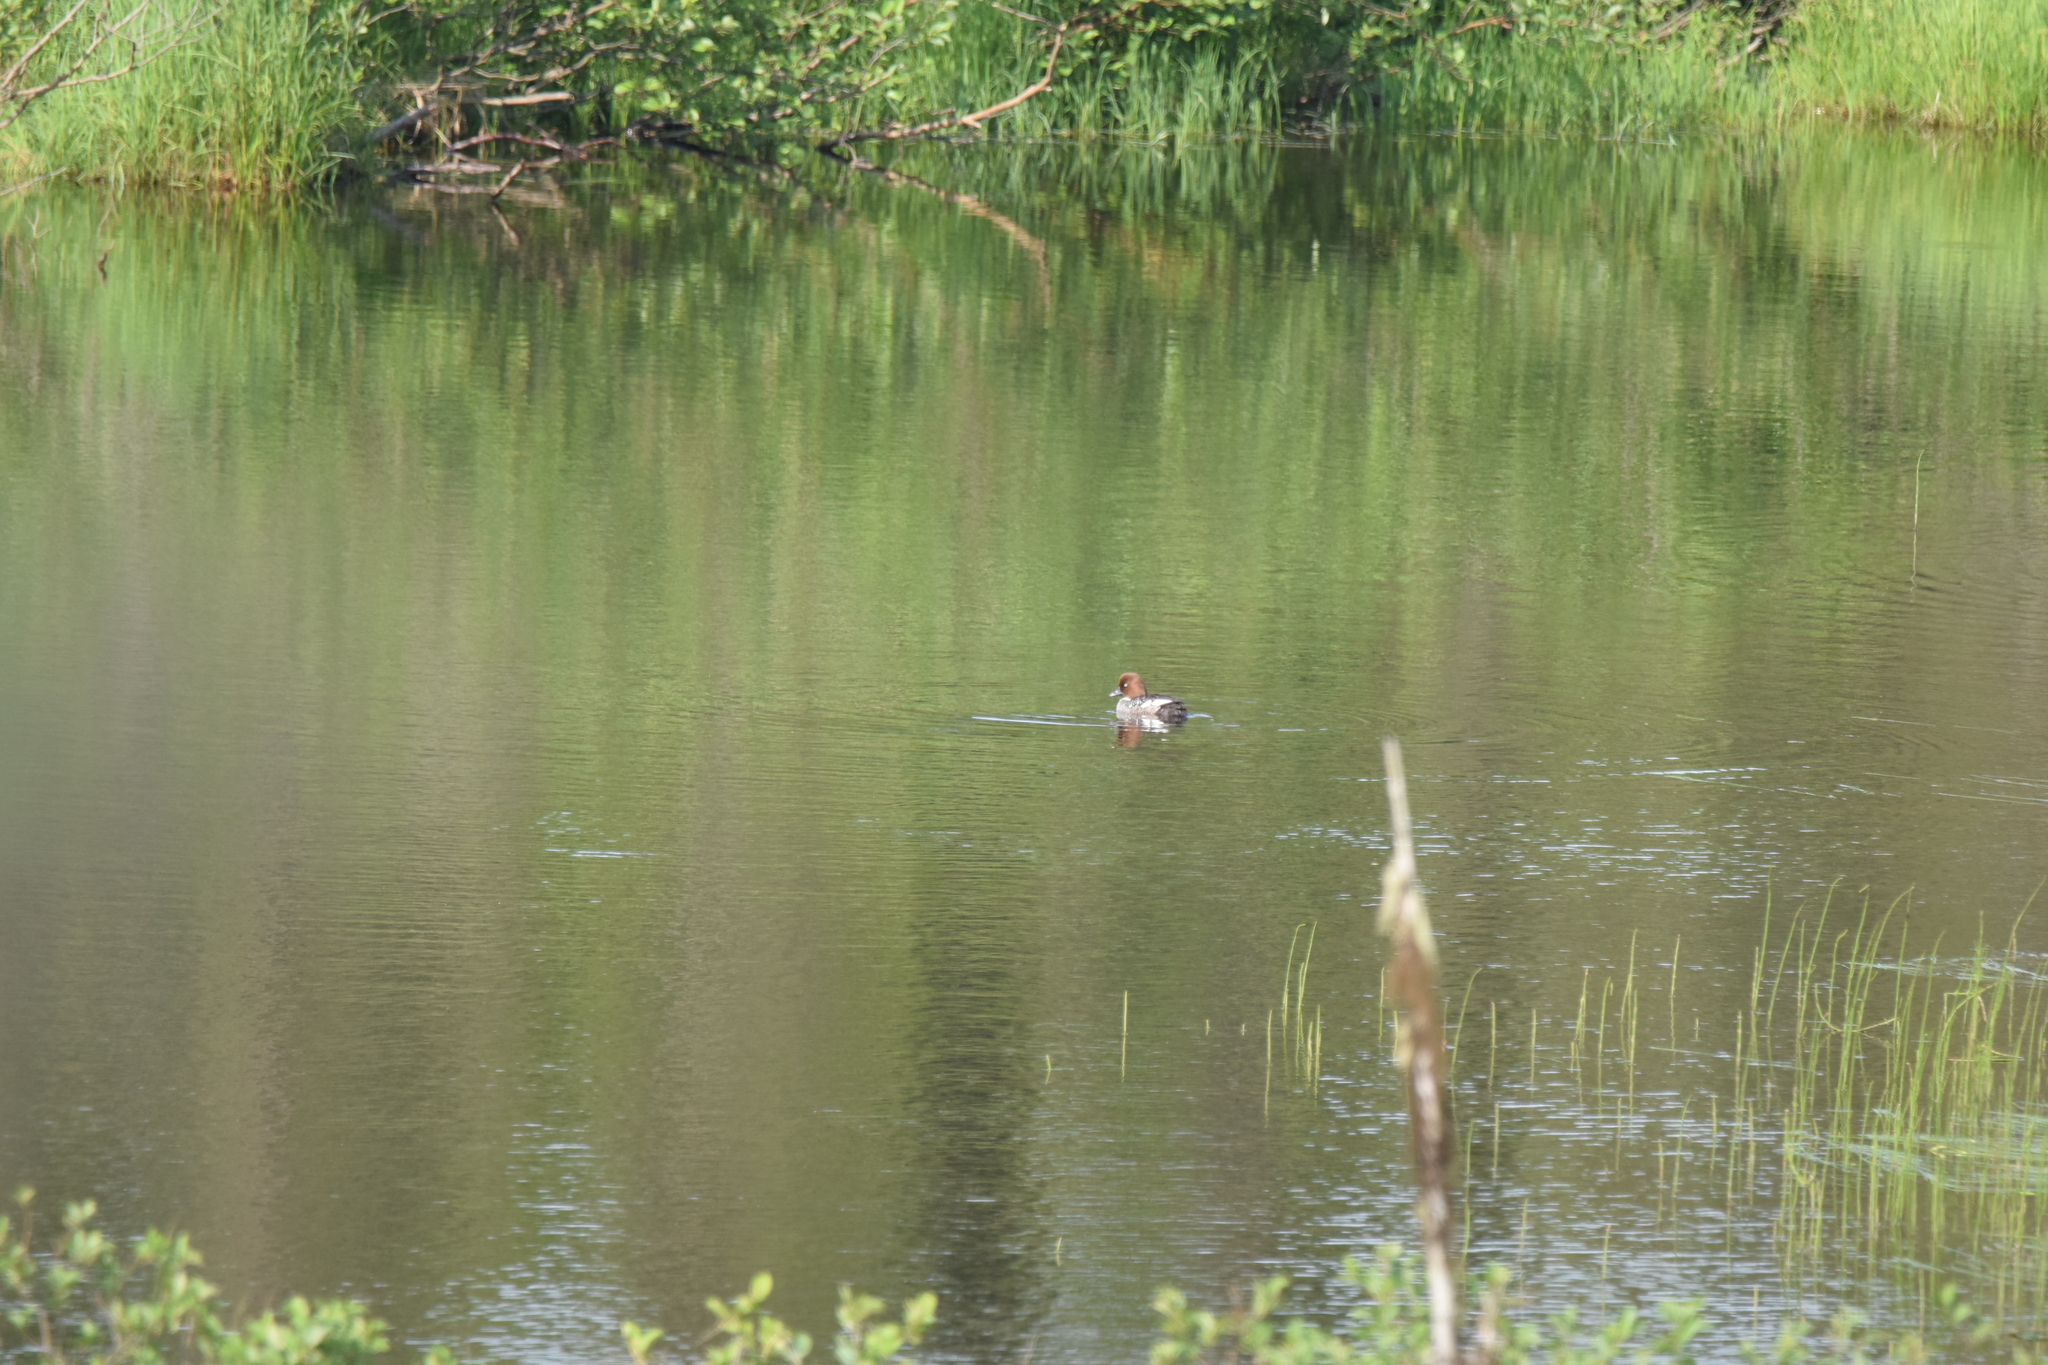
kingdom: Animalia
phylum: Chordata
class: Aves
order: Anseriformes
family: Anatidae
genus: Bucephala
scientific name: Bucephala clangula
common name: Common goldeneye
